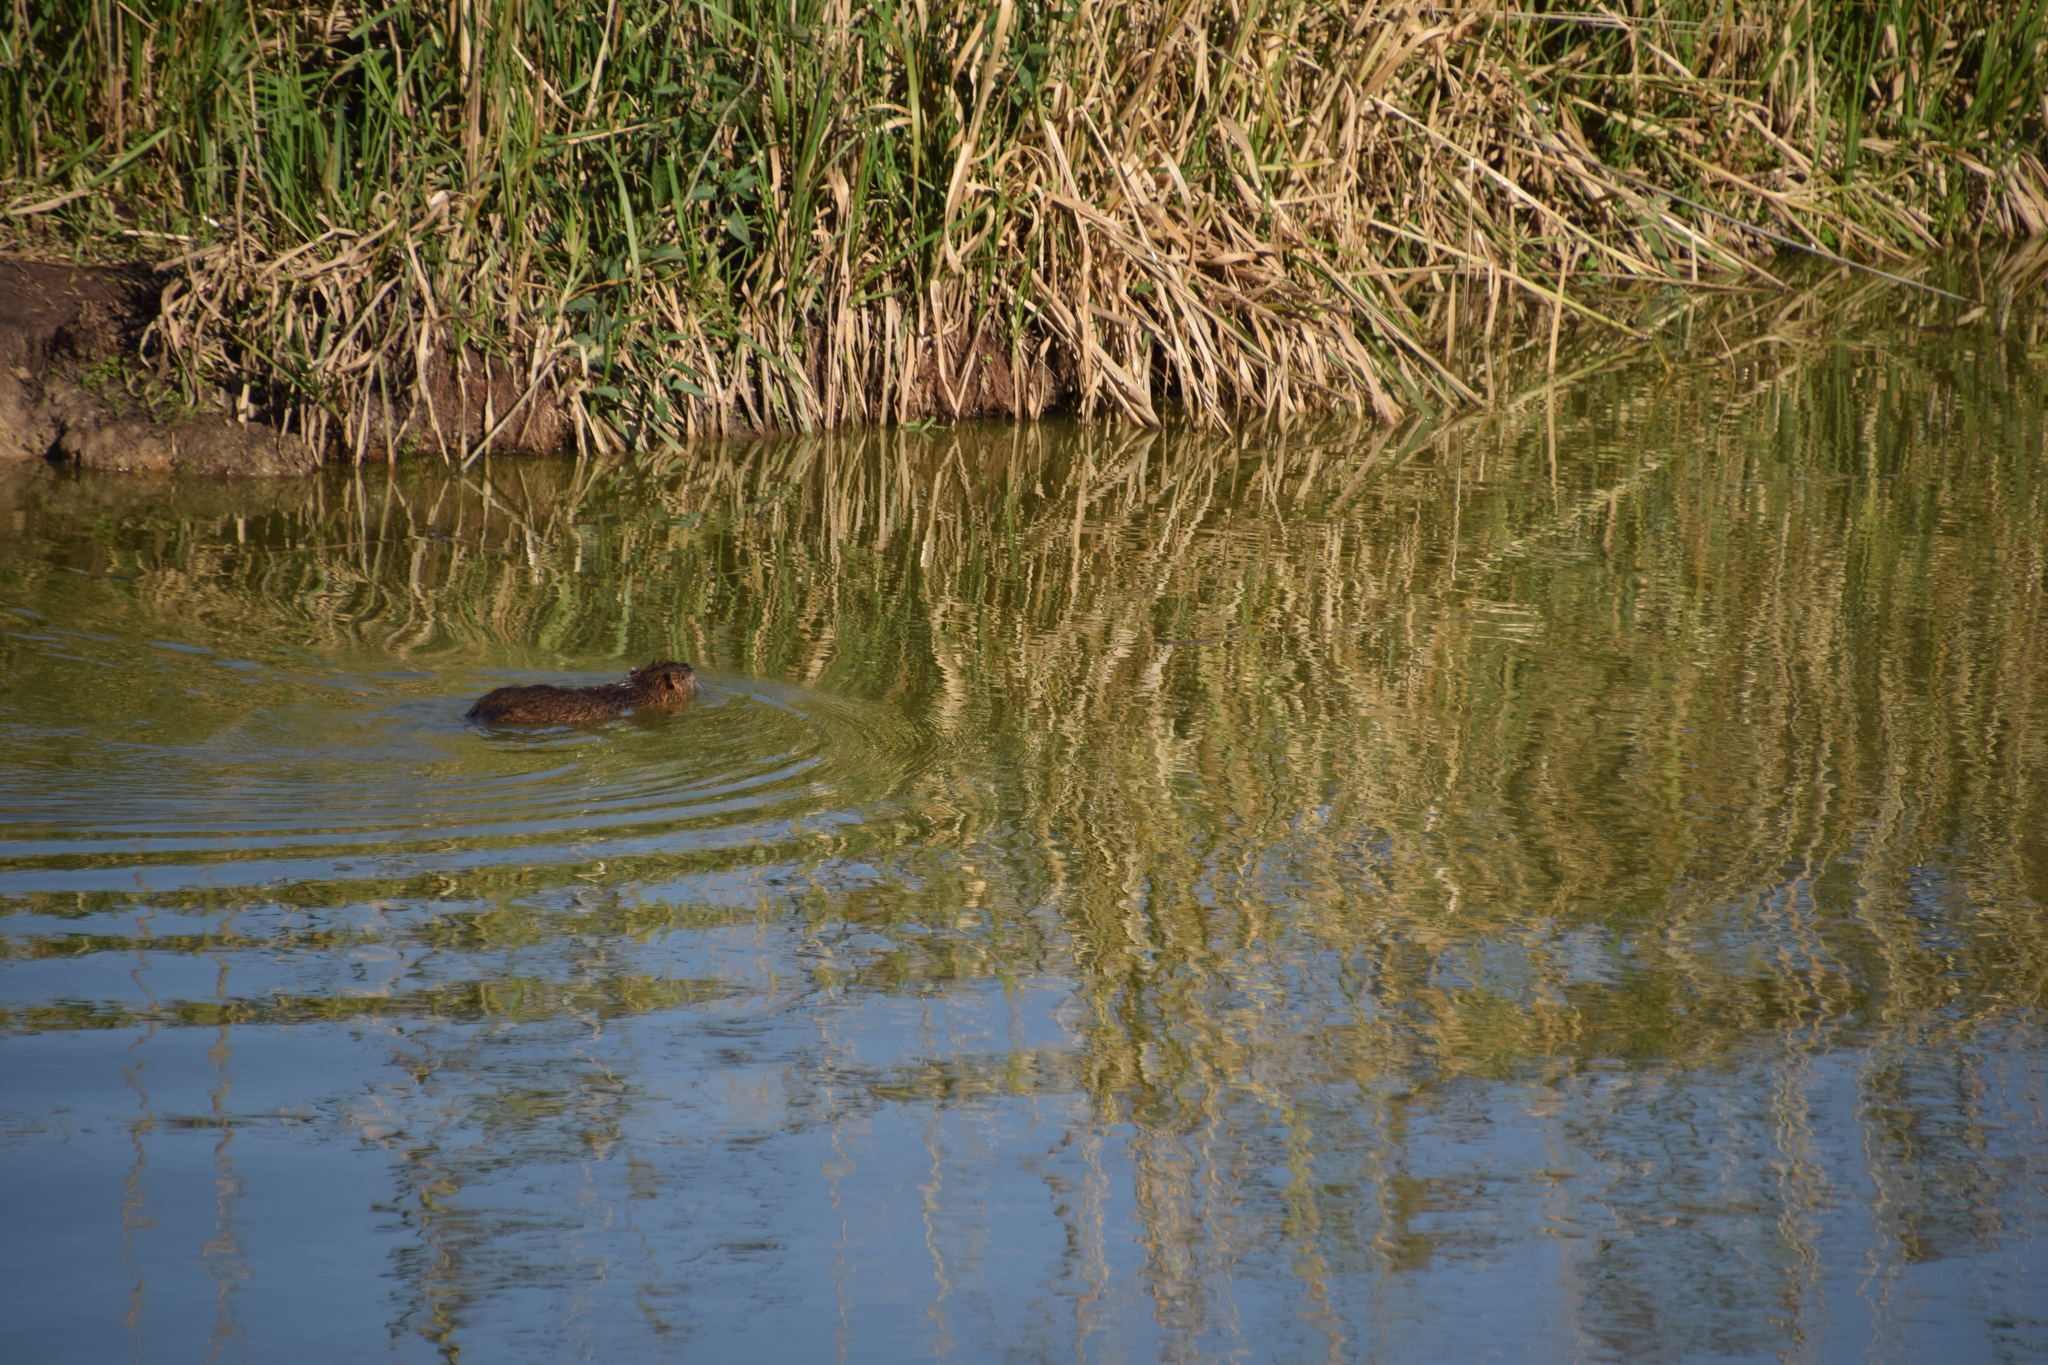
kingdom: Animalia
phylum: Chordata
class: Mammalia
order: Rodentia
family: Myocastoridae
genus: Myocastor
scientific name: Myocastor coypus
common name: Coypu
